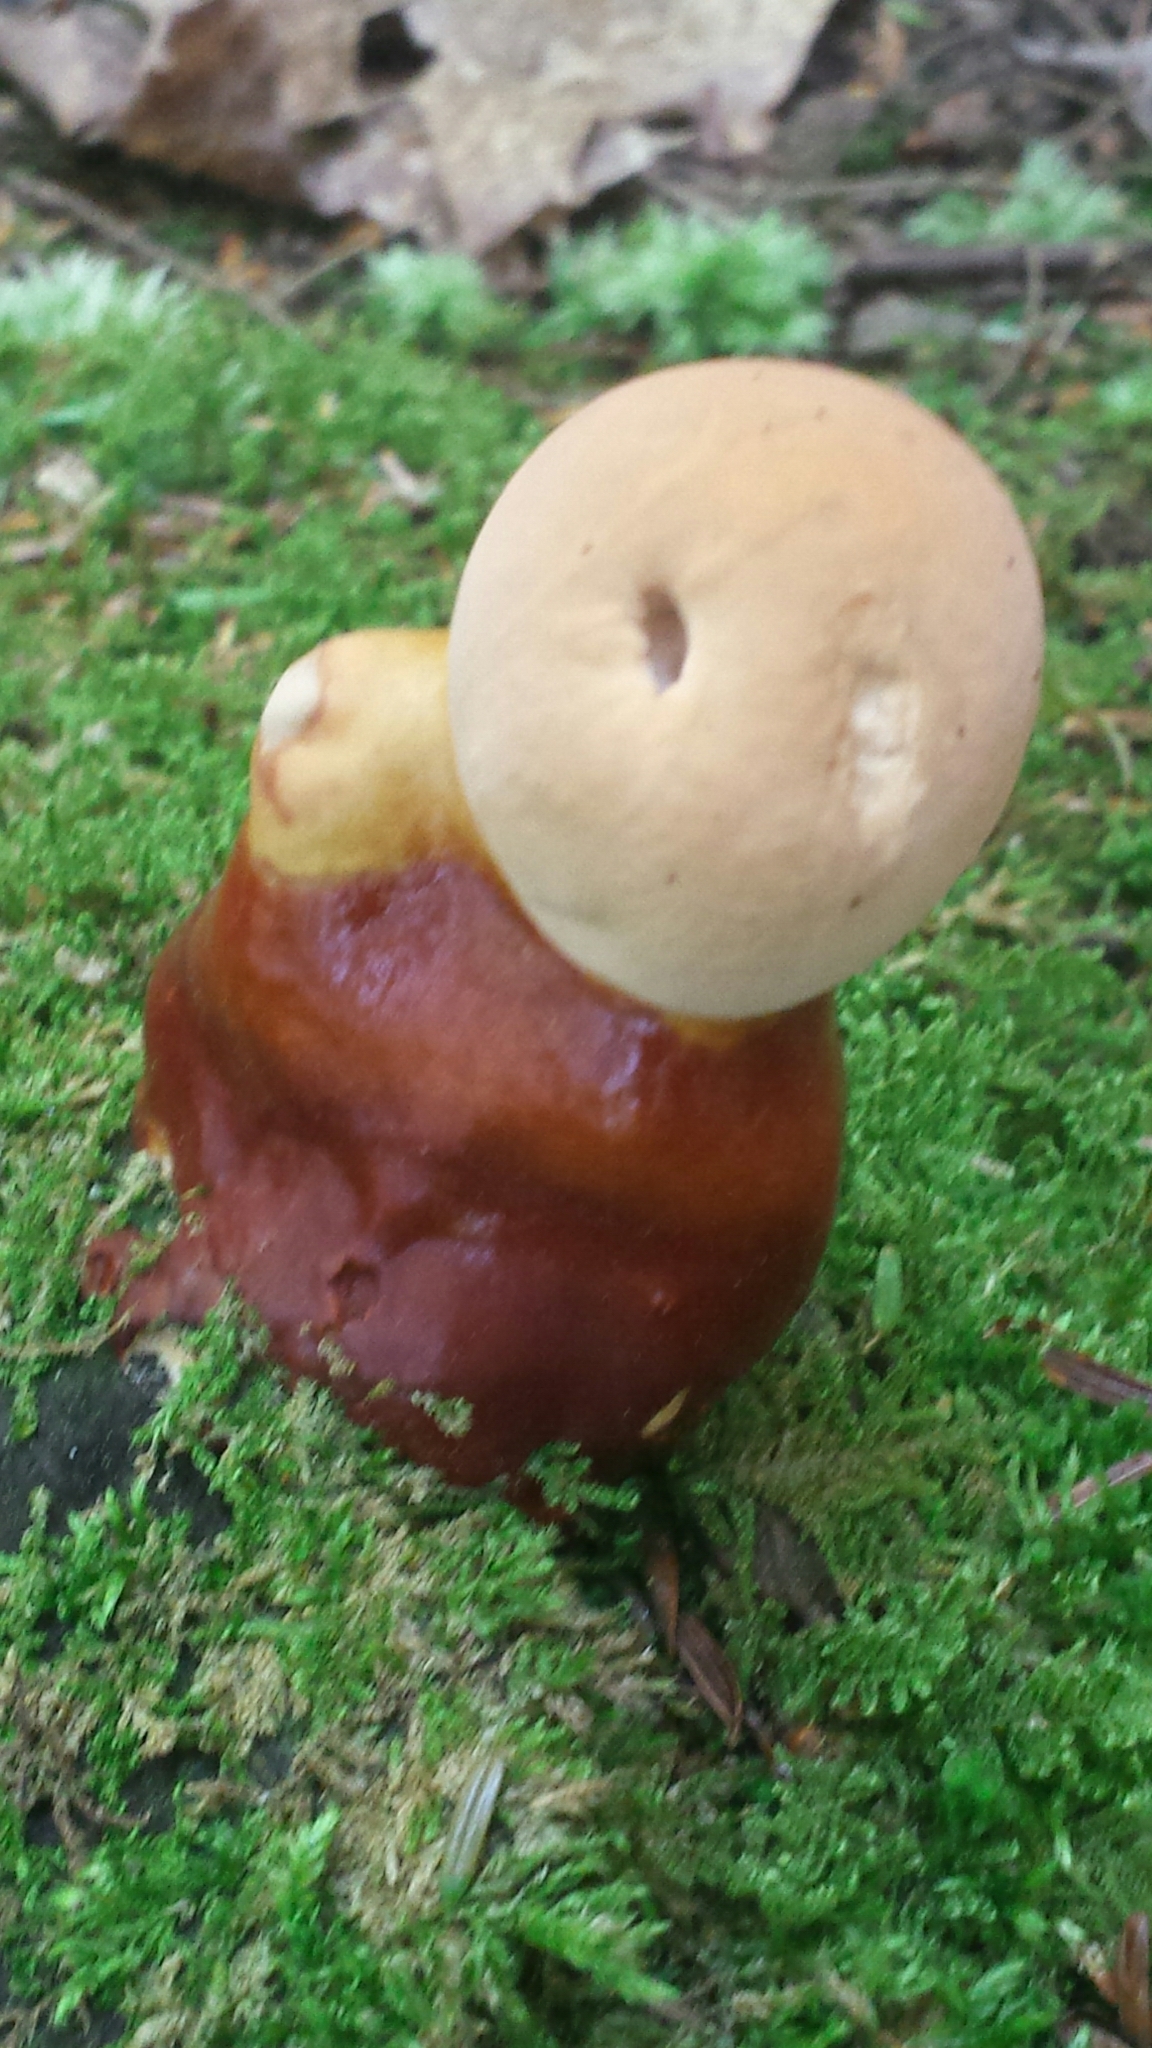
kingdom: Fungi
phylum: Basidiomycota
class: Agaricomycetes
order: Polyporales
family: Polyporaceae
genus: Ganoderma
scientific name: Ganoderma tsugae
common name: Hemlock varnish shelf
